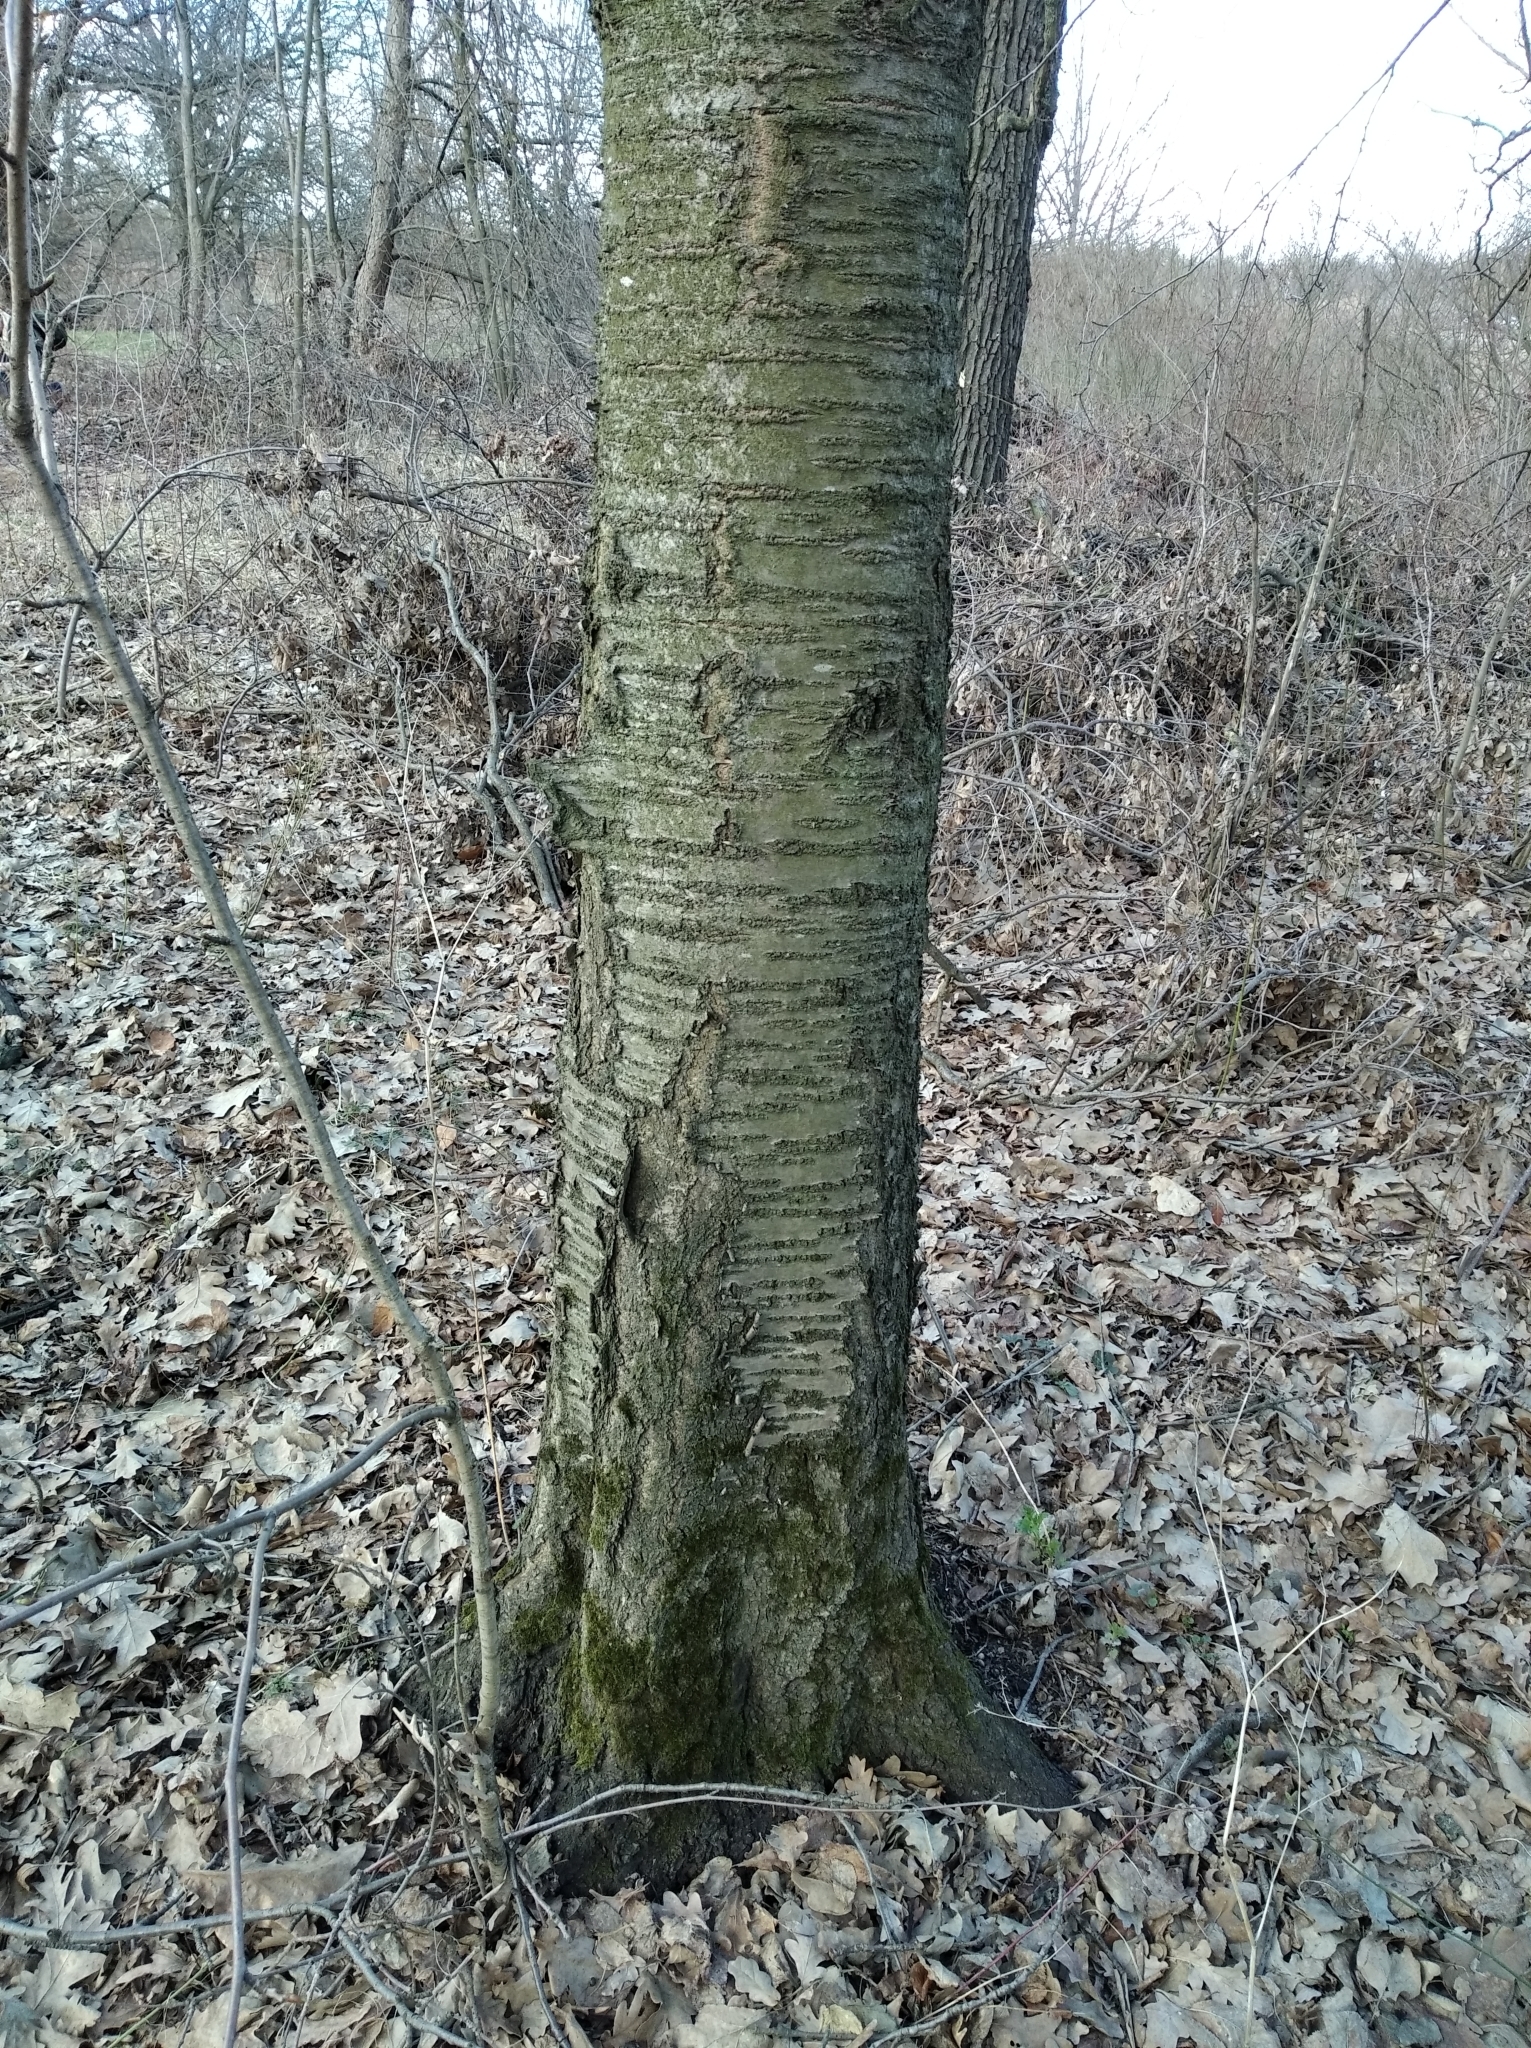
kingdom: Plantae
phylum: Tracheophyta
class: Magnoliopsida
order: Rosales
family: Rosaceae
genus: Prunus
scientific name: Prunus avium
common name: Sweet cherry
